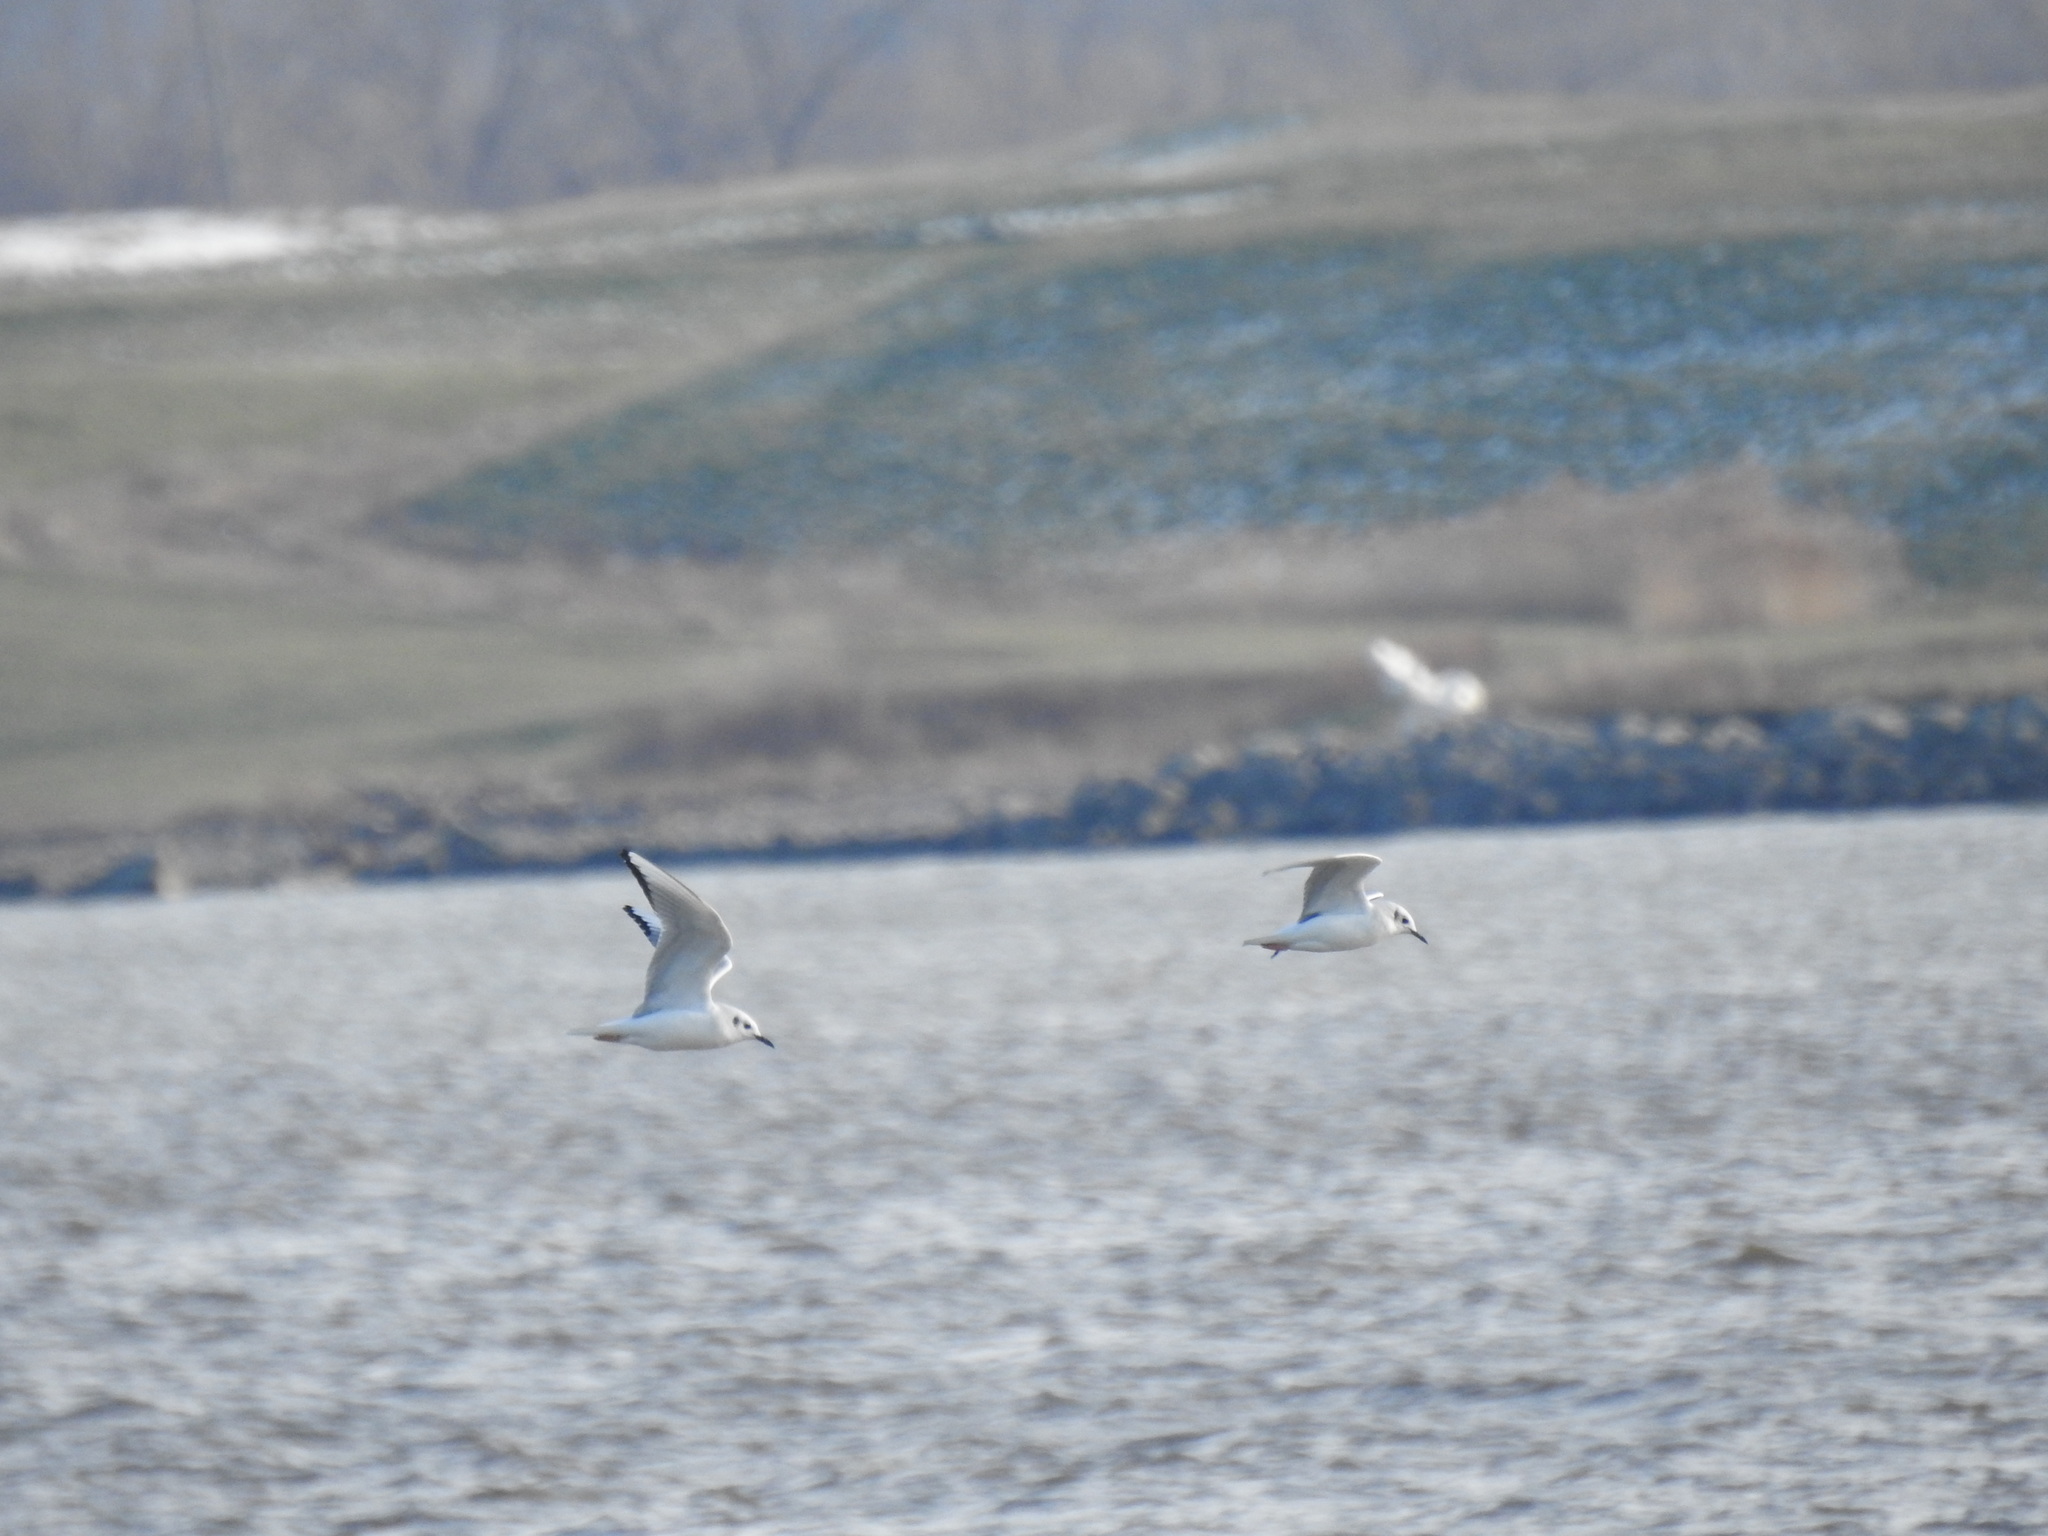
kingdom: Animalia
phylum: Chordata
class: Aves
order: Charadriiformes
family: Laridae
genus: Chroicocephalus
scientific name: Chroicocephalus philadelphia
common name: Bonaparte's gull
